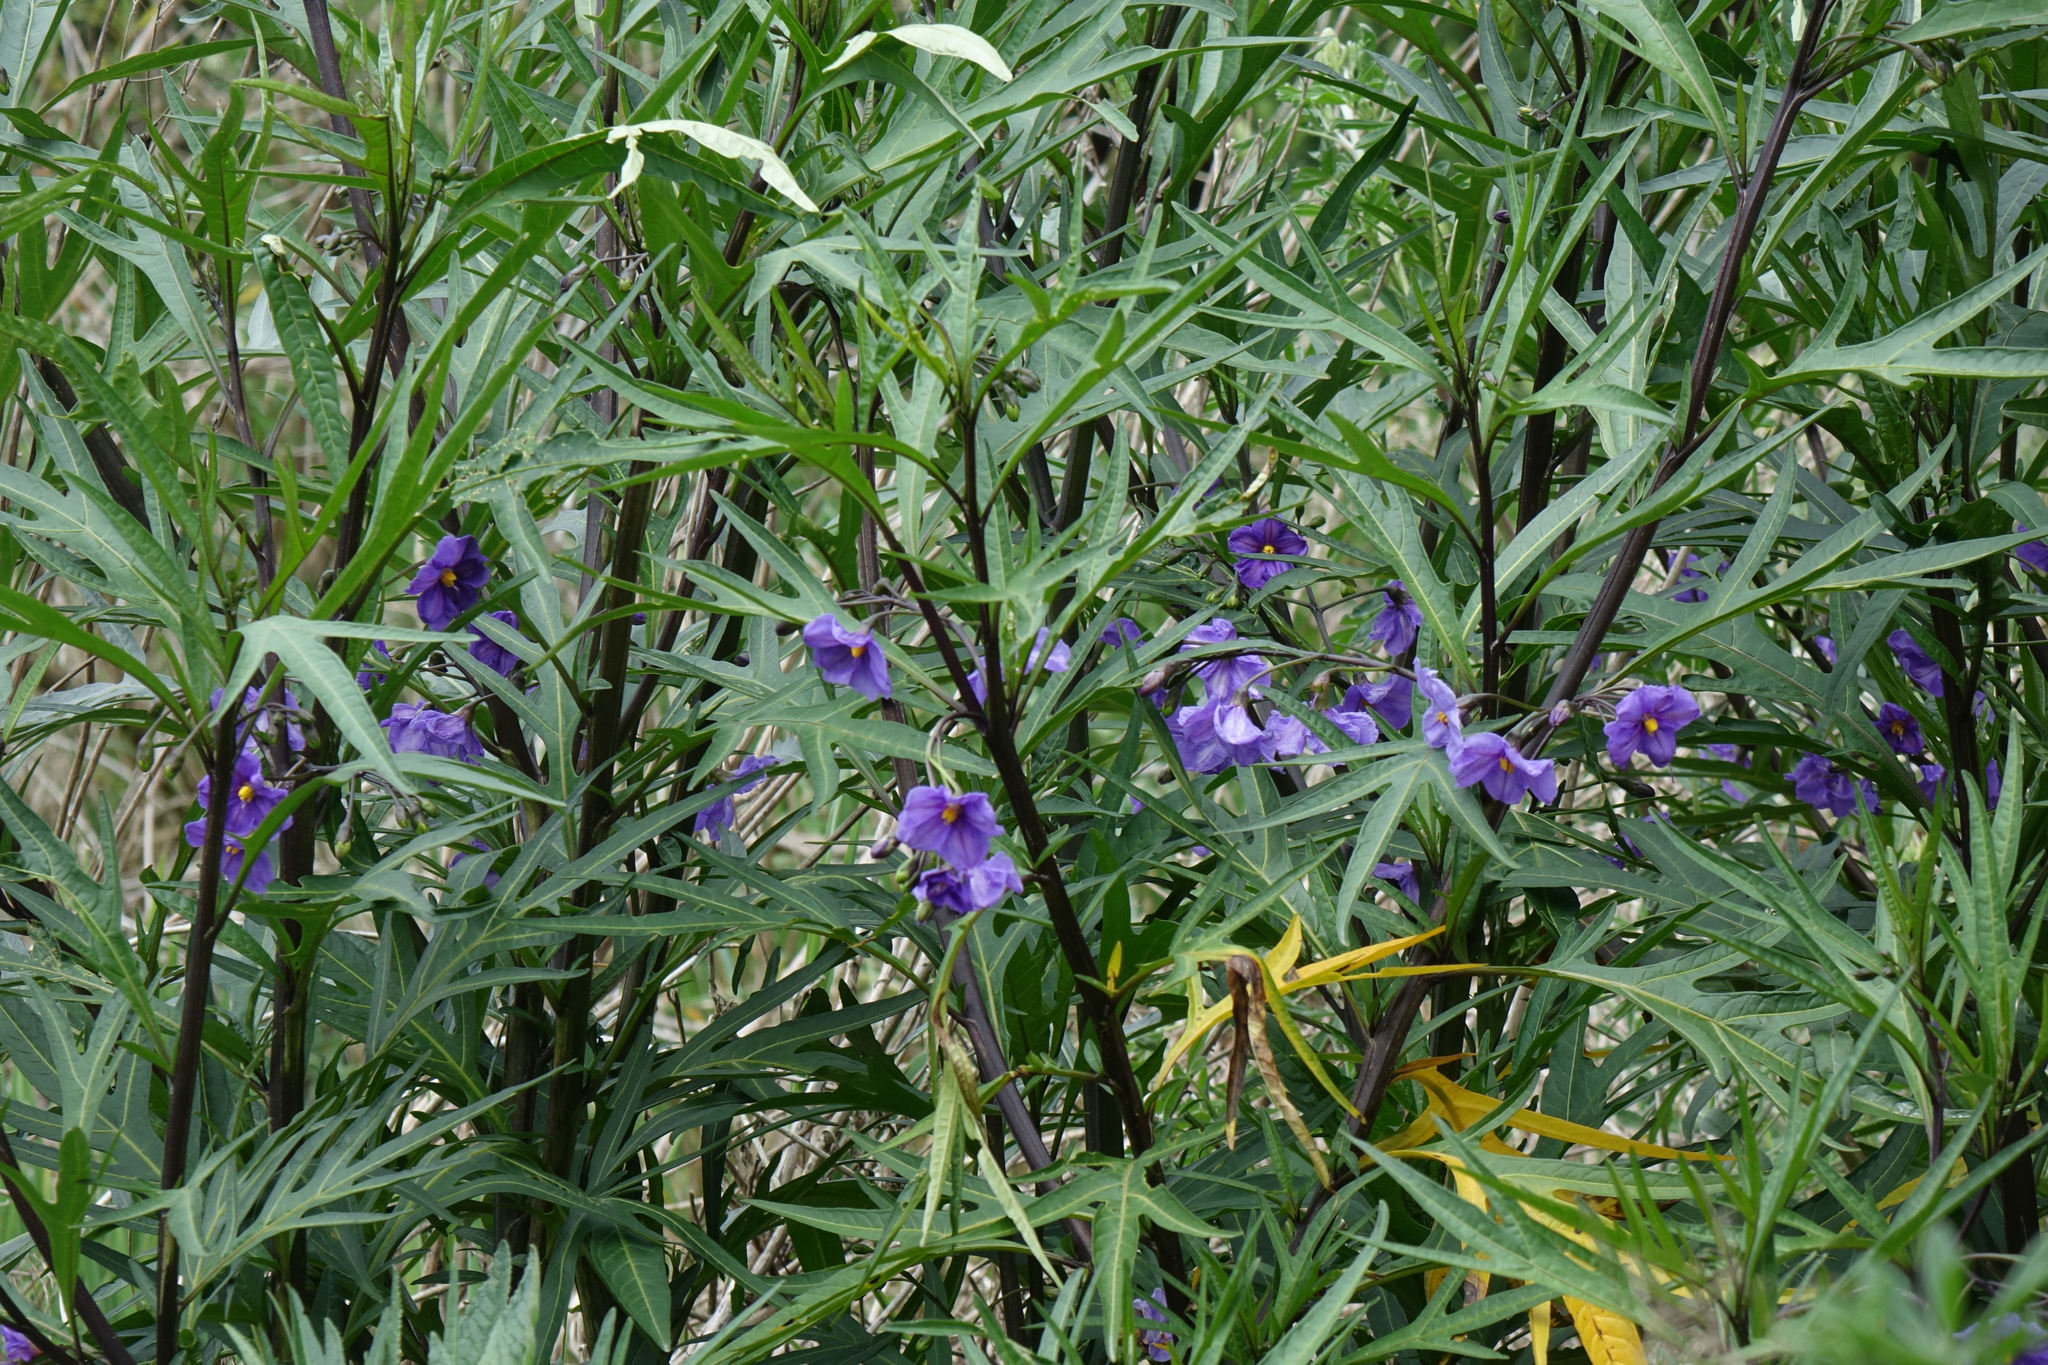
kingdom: Plantae
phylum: Tracheophyta
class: Magnoliopsida
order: Solanales
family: Solanaceae
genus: Solanum
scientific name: Solanum laciniatum
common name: Kangaroo-apple
